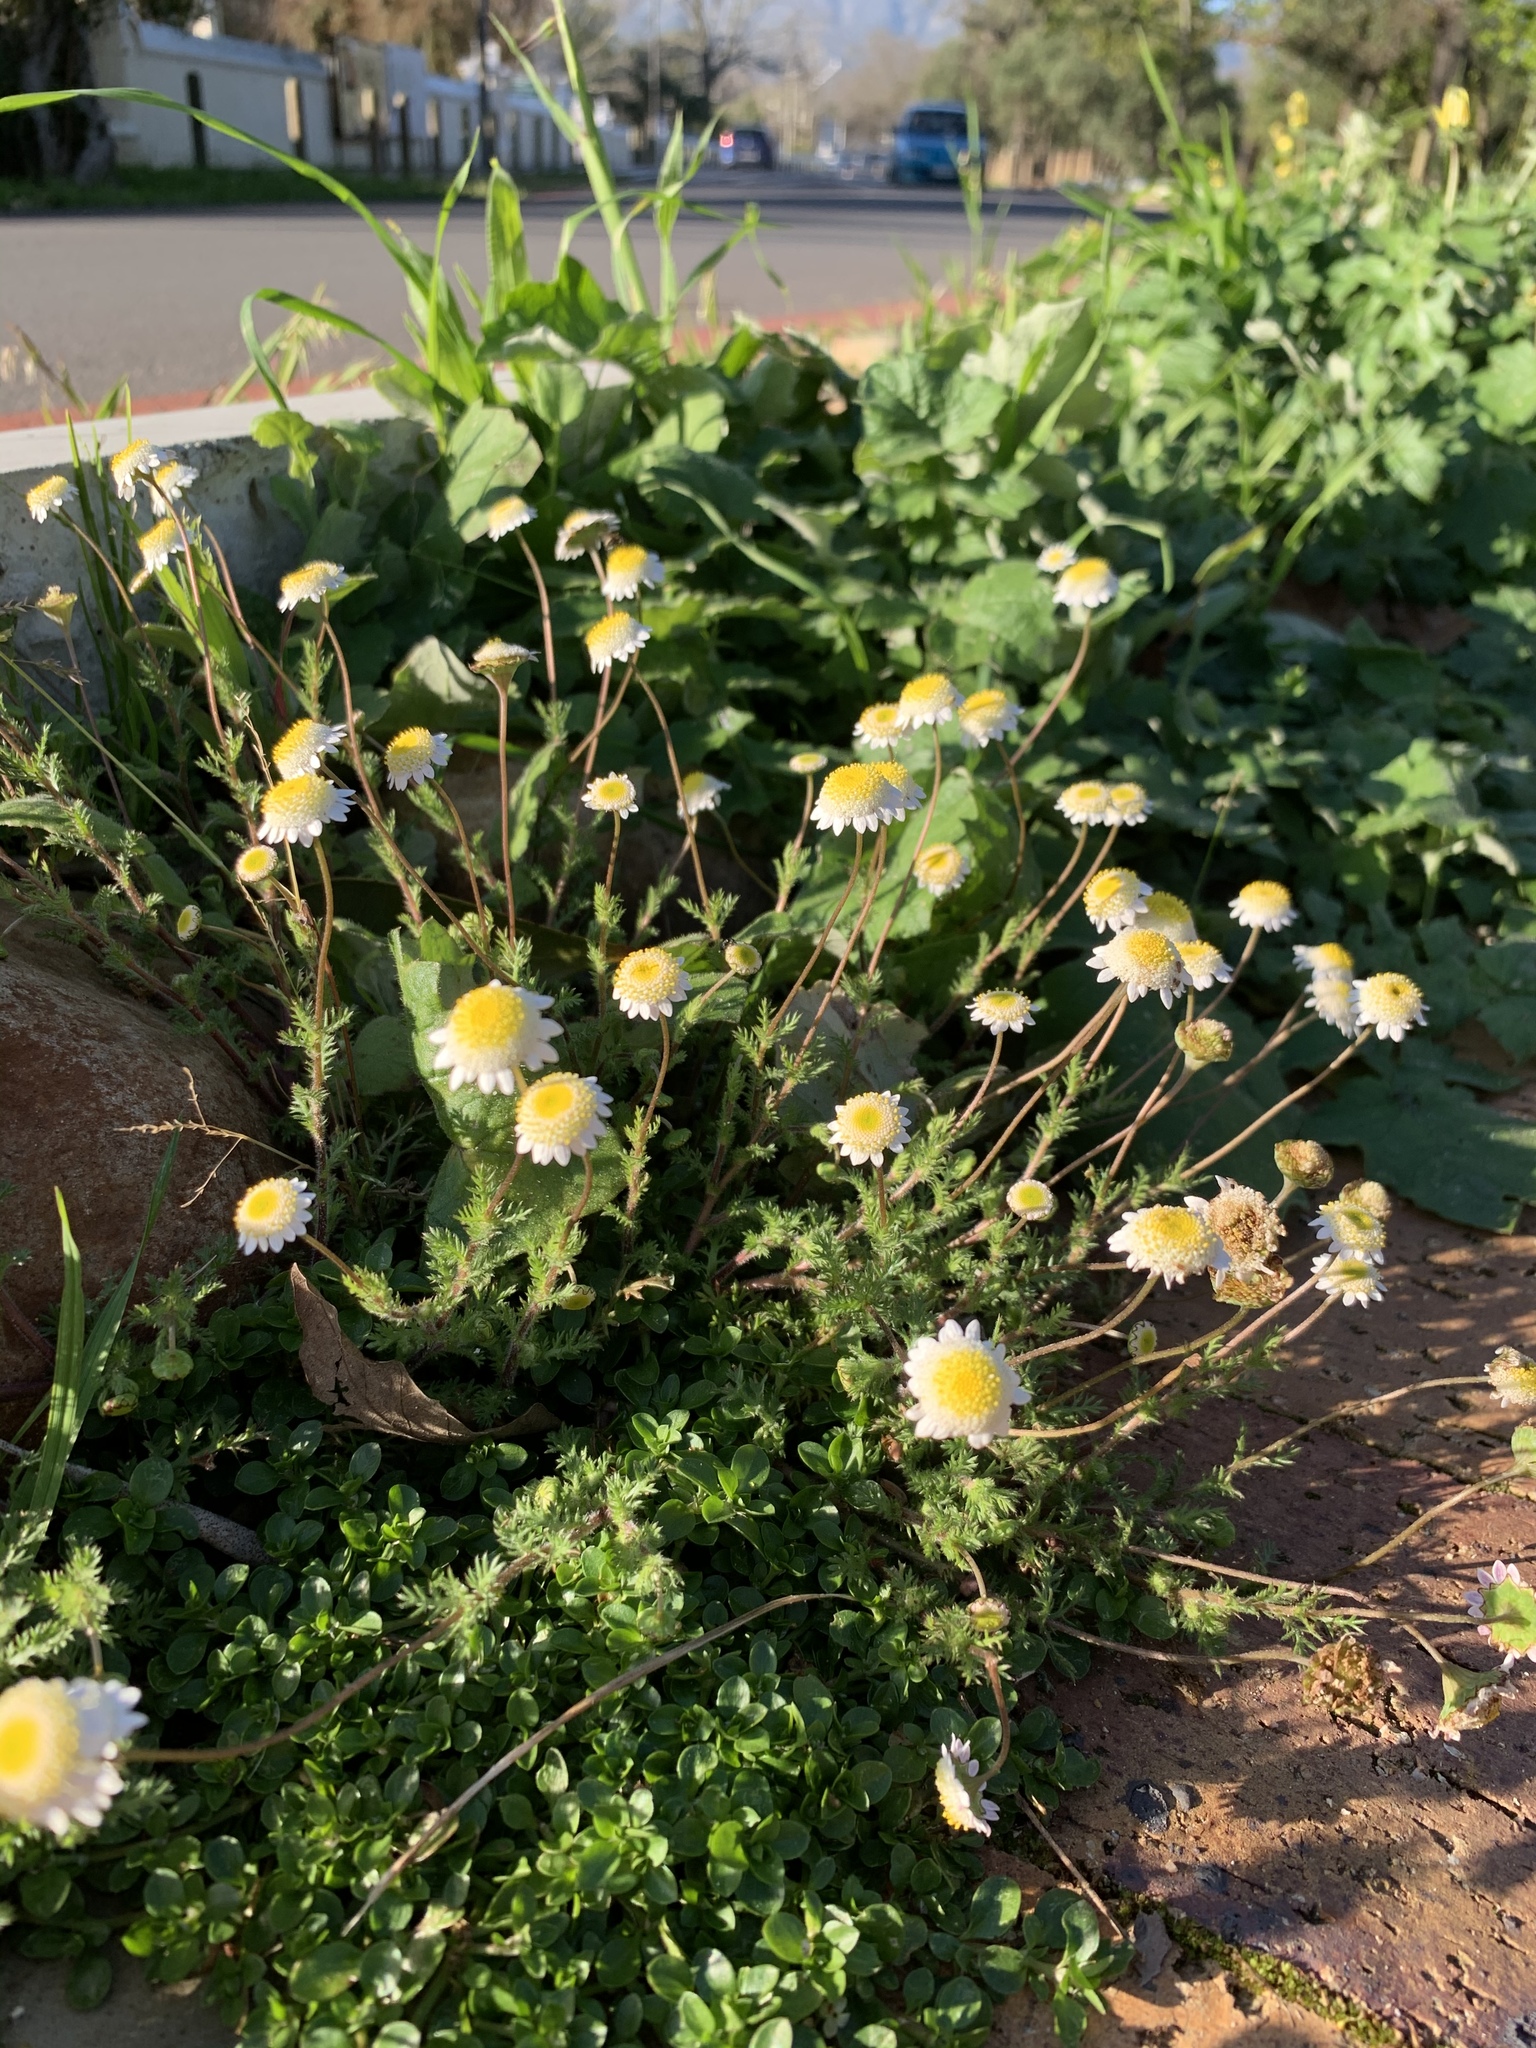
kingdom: Plantae
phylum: Tracheophyta
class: Magnoliopsida
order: Asterales
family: Asteraceae
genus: Cotula
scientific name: Cotula turbinata
